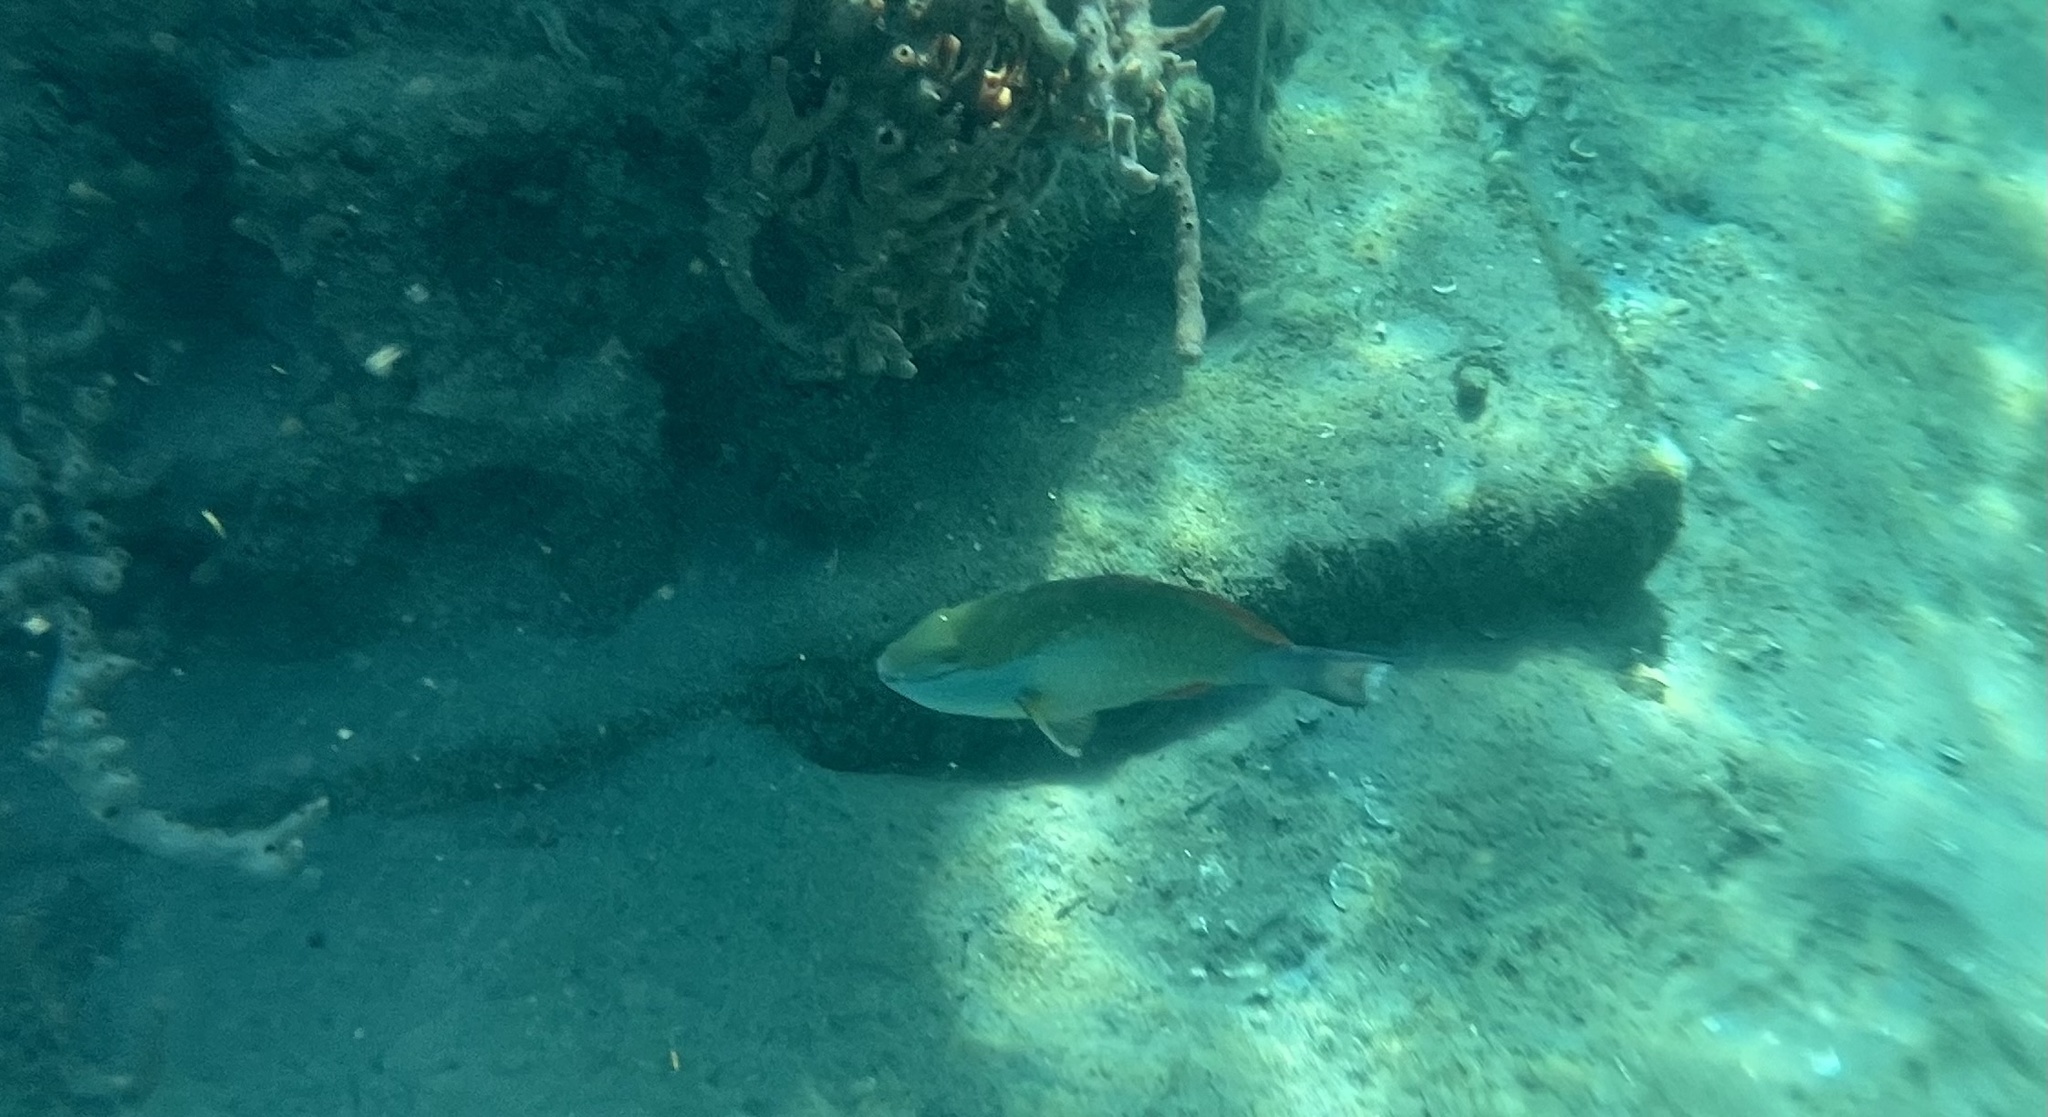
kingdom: Animalia
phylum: Chordata
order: Perciformes
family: Scaridae
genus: Sparisoma
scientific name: Sparisoma aurofrenatum
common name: Redband parrotfish
